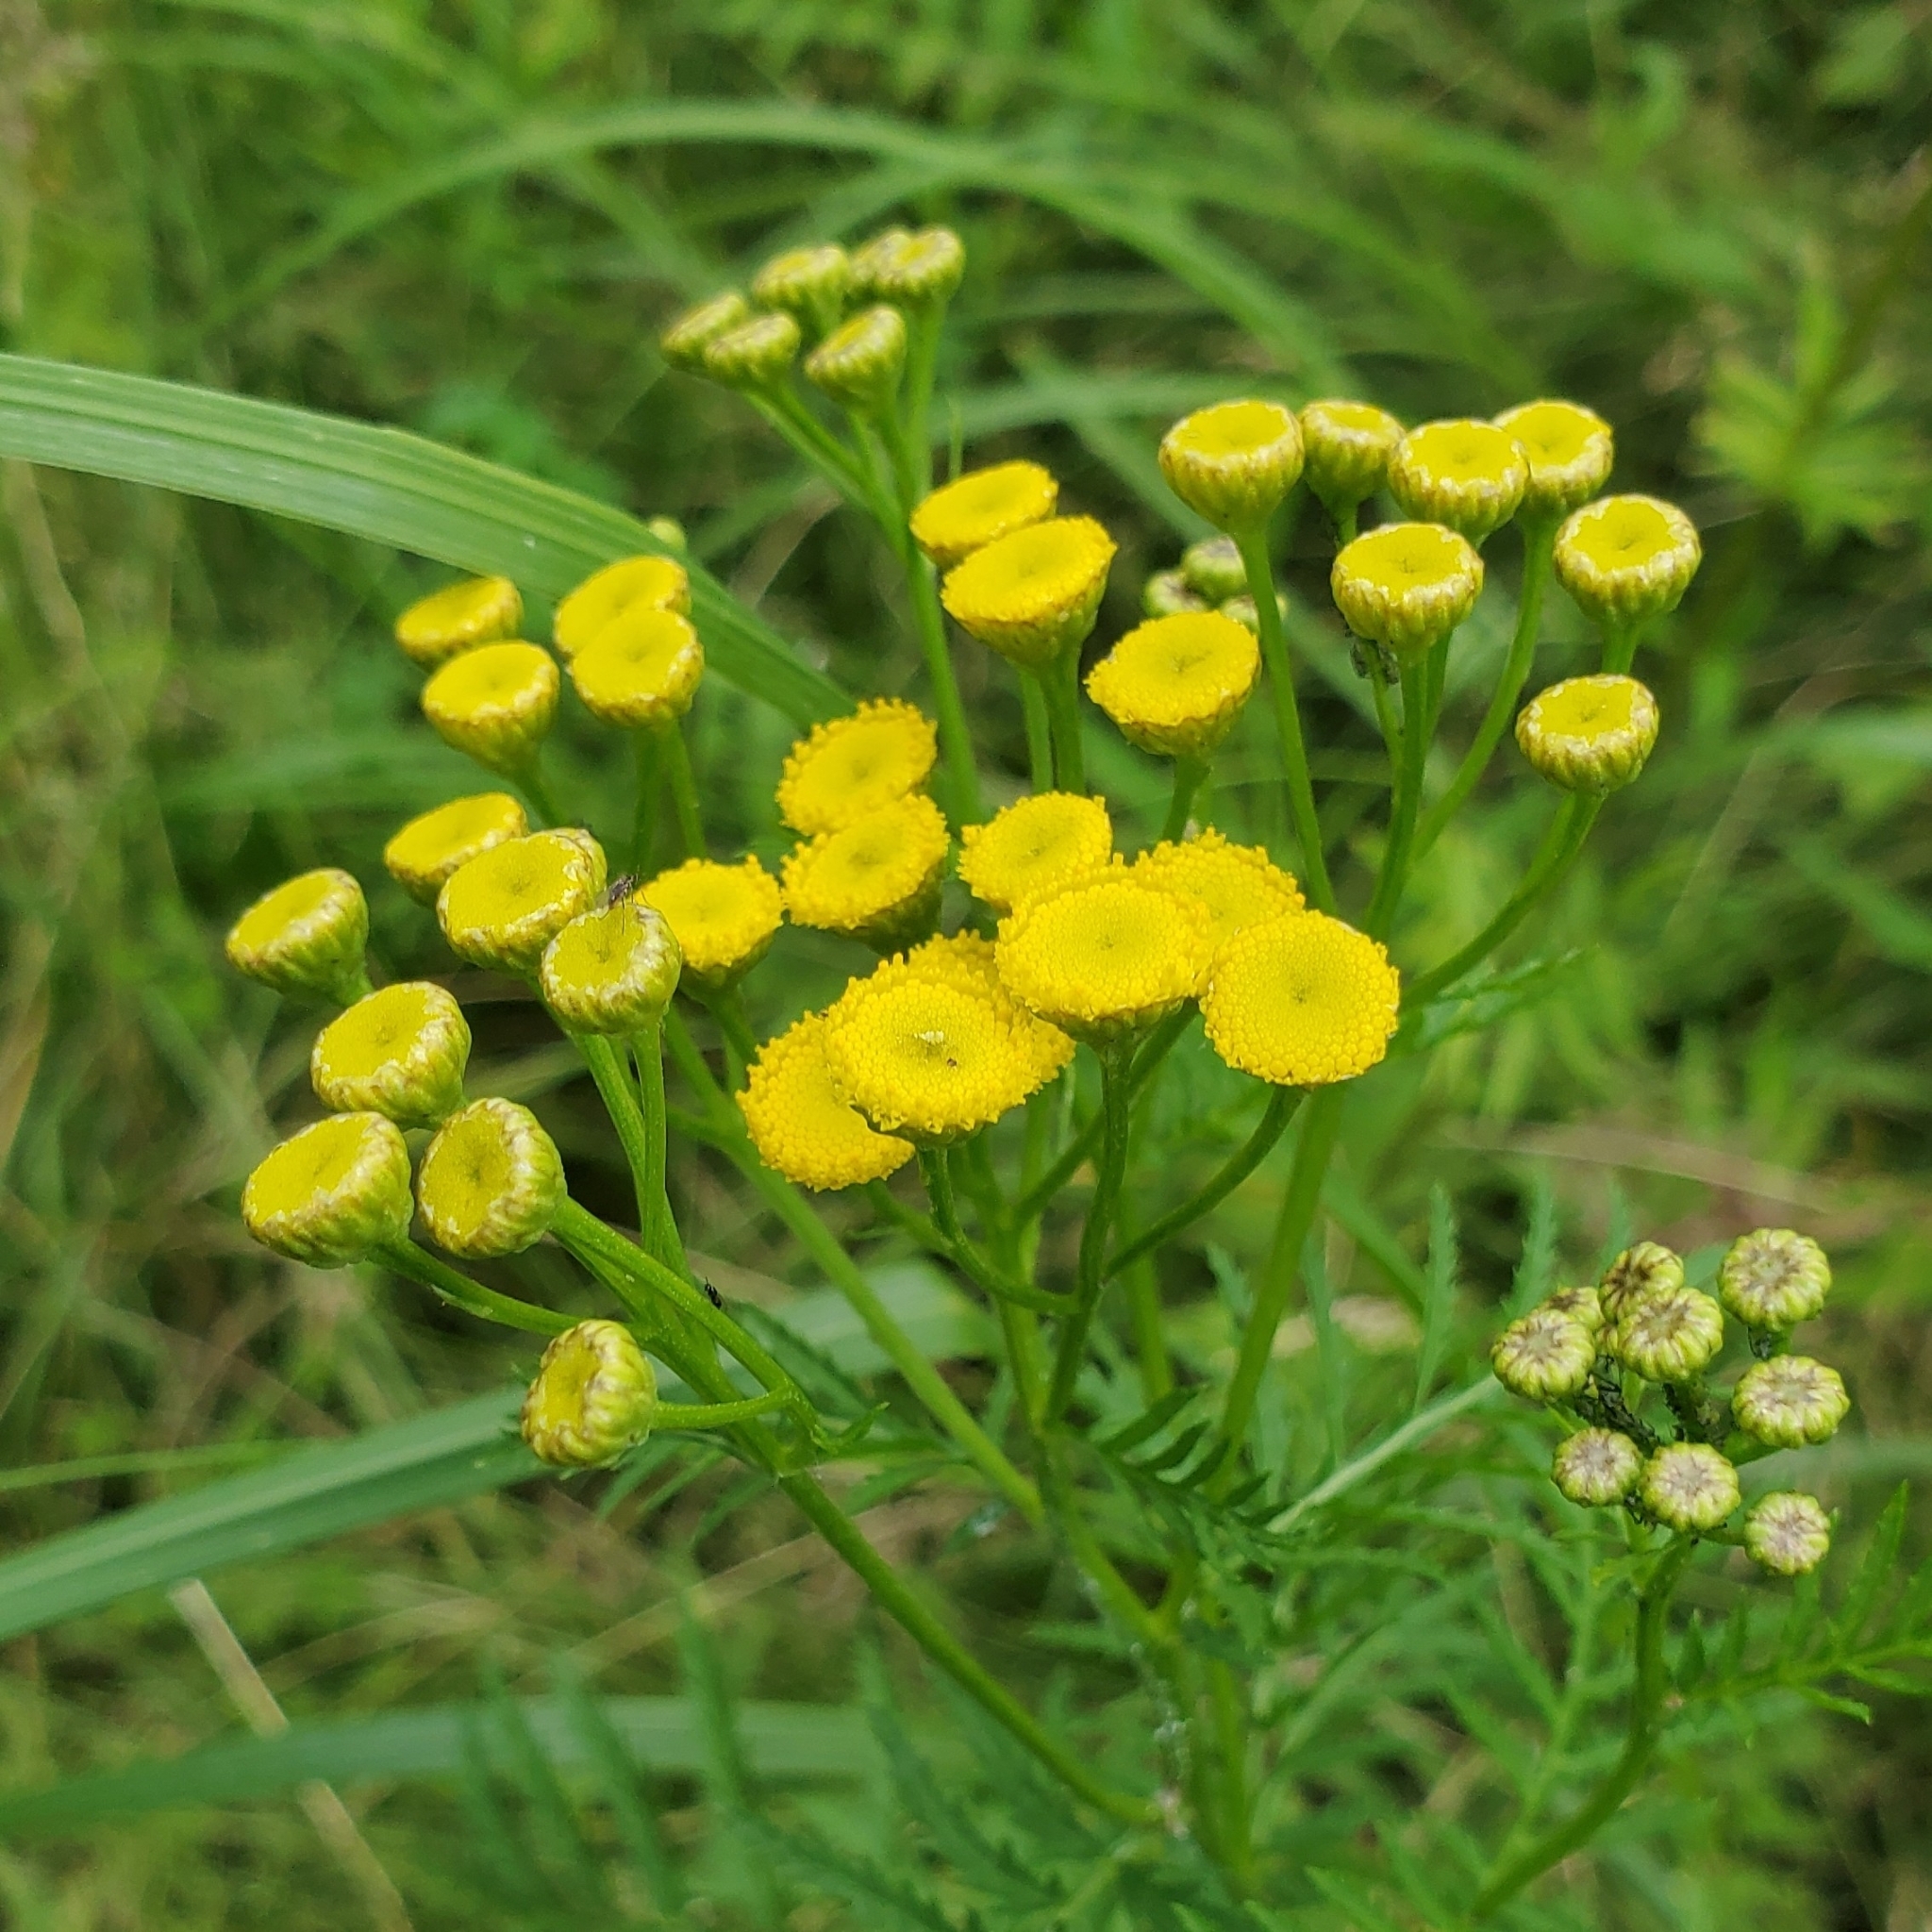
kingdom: Plantae
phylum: Tracheophyta
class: Magnoliopsida
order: Asterales
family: Asteraceae
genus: Tanacetum
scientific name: Tanacetum vulgare
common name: Common tansy
